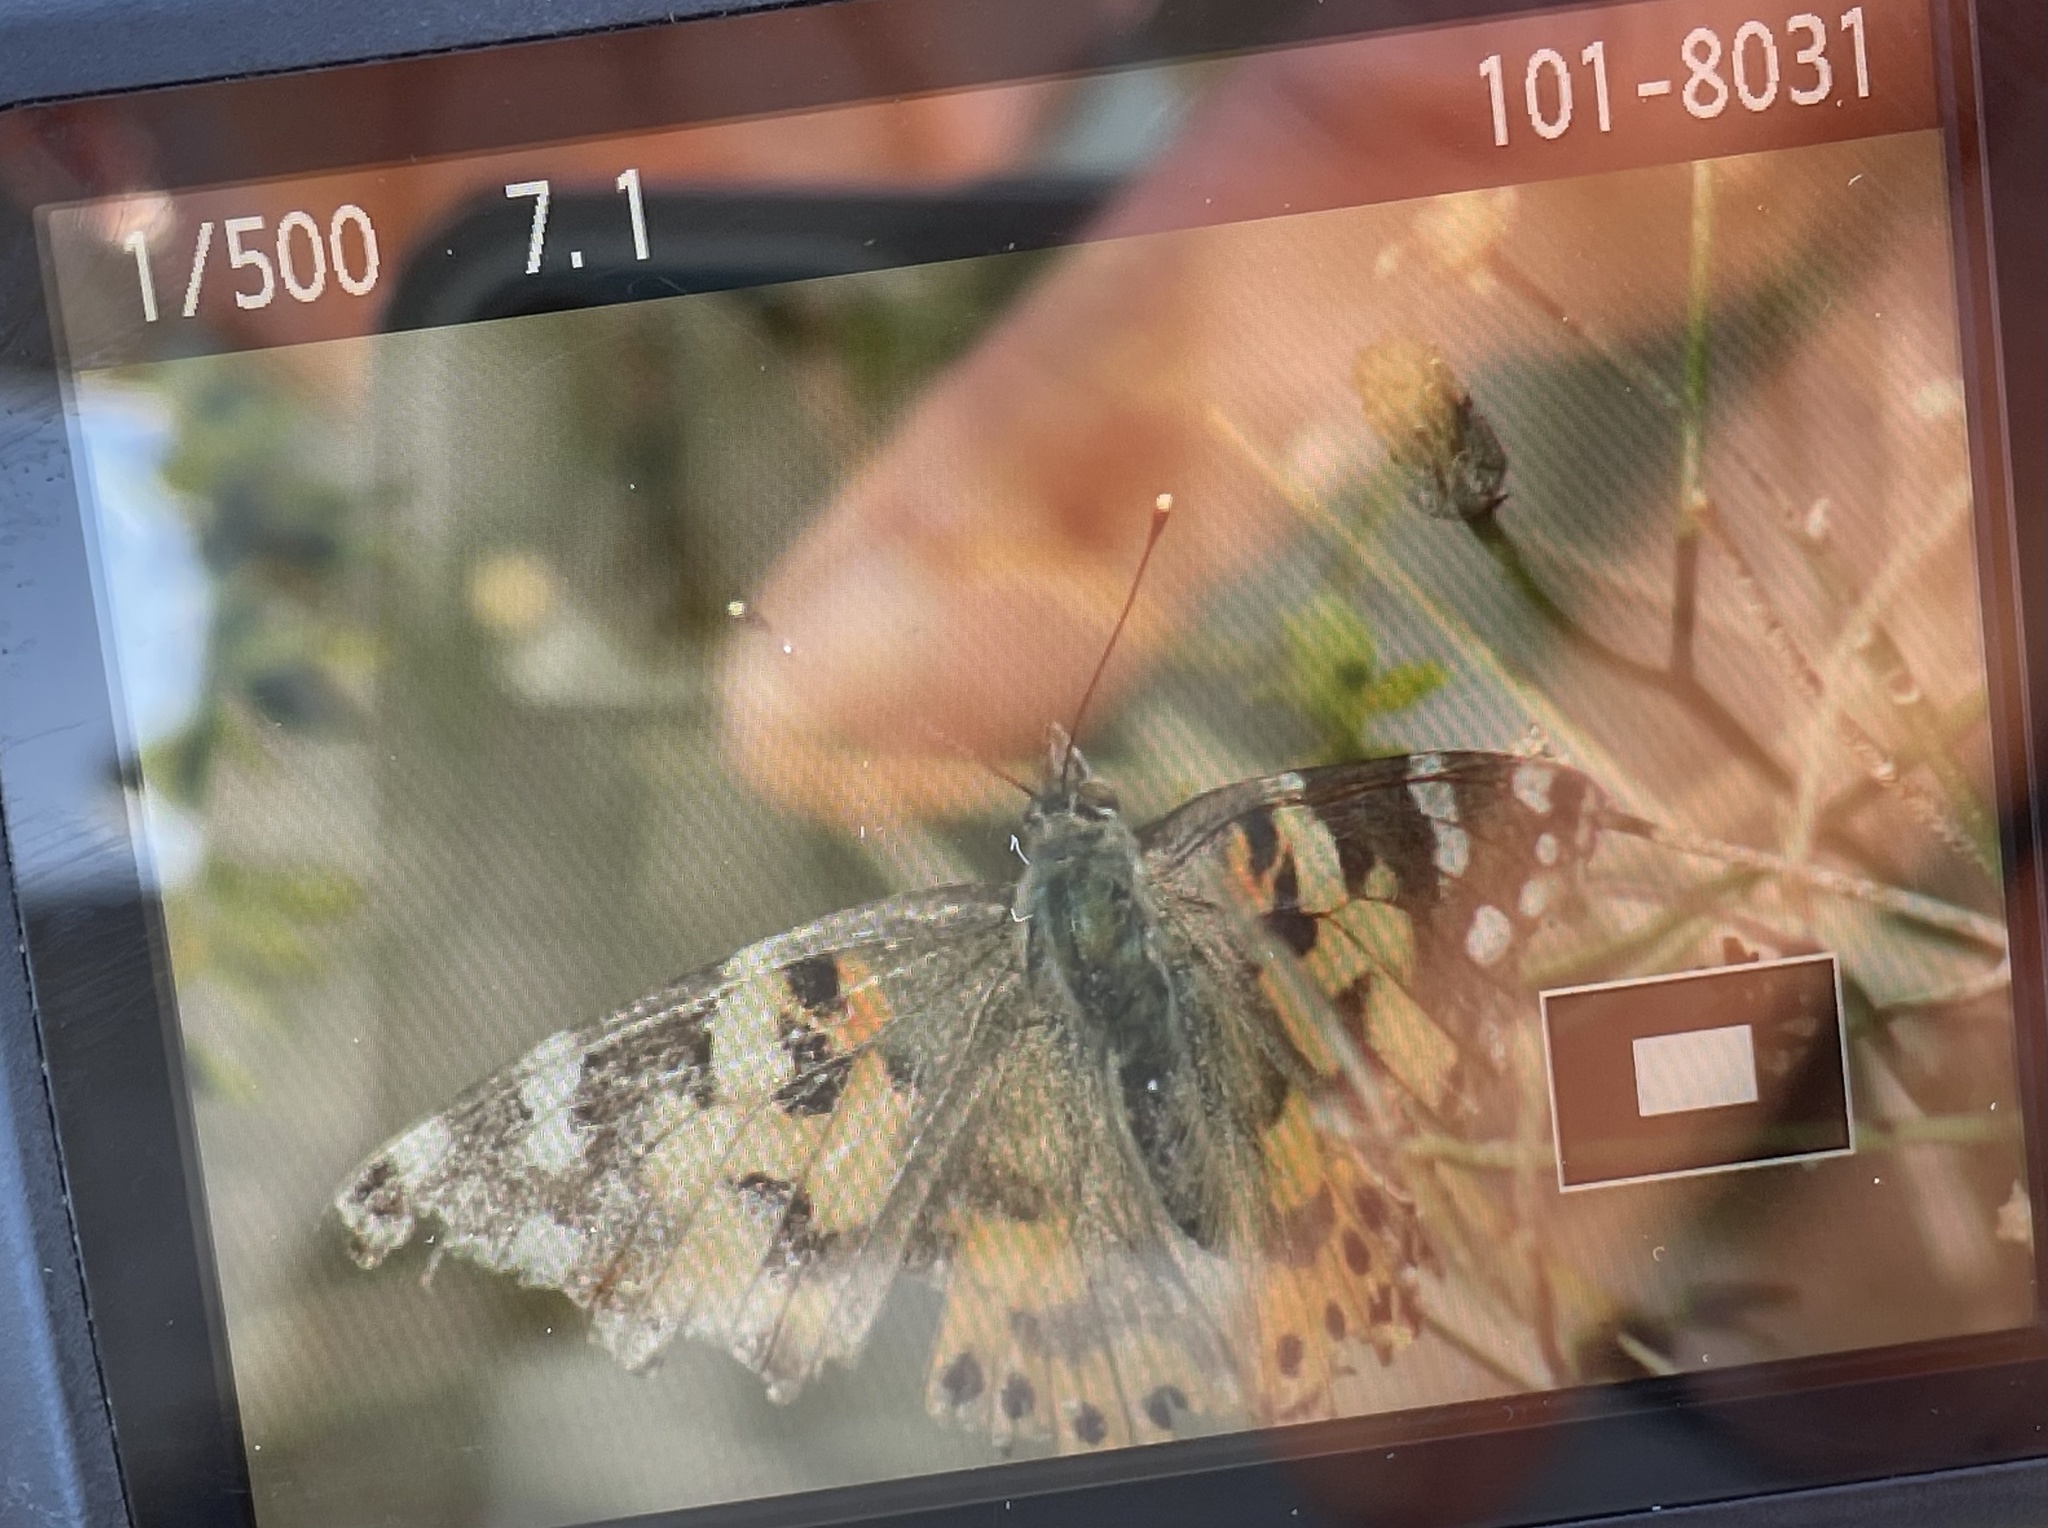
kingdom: Animalia
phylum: Arthropoda
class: Insecta
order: Lepidoptera
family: Nymphalidae
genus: Vanessa
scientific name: Vanessa cardui
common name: Painted lady
